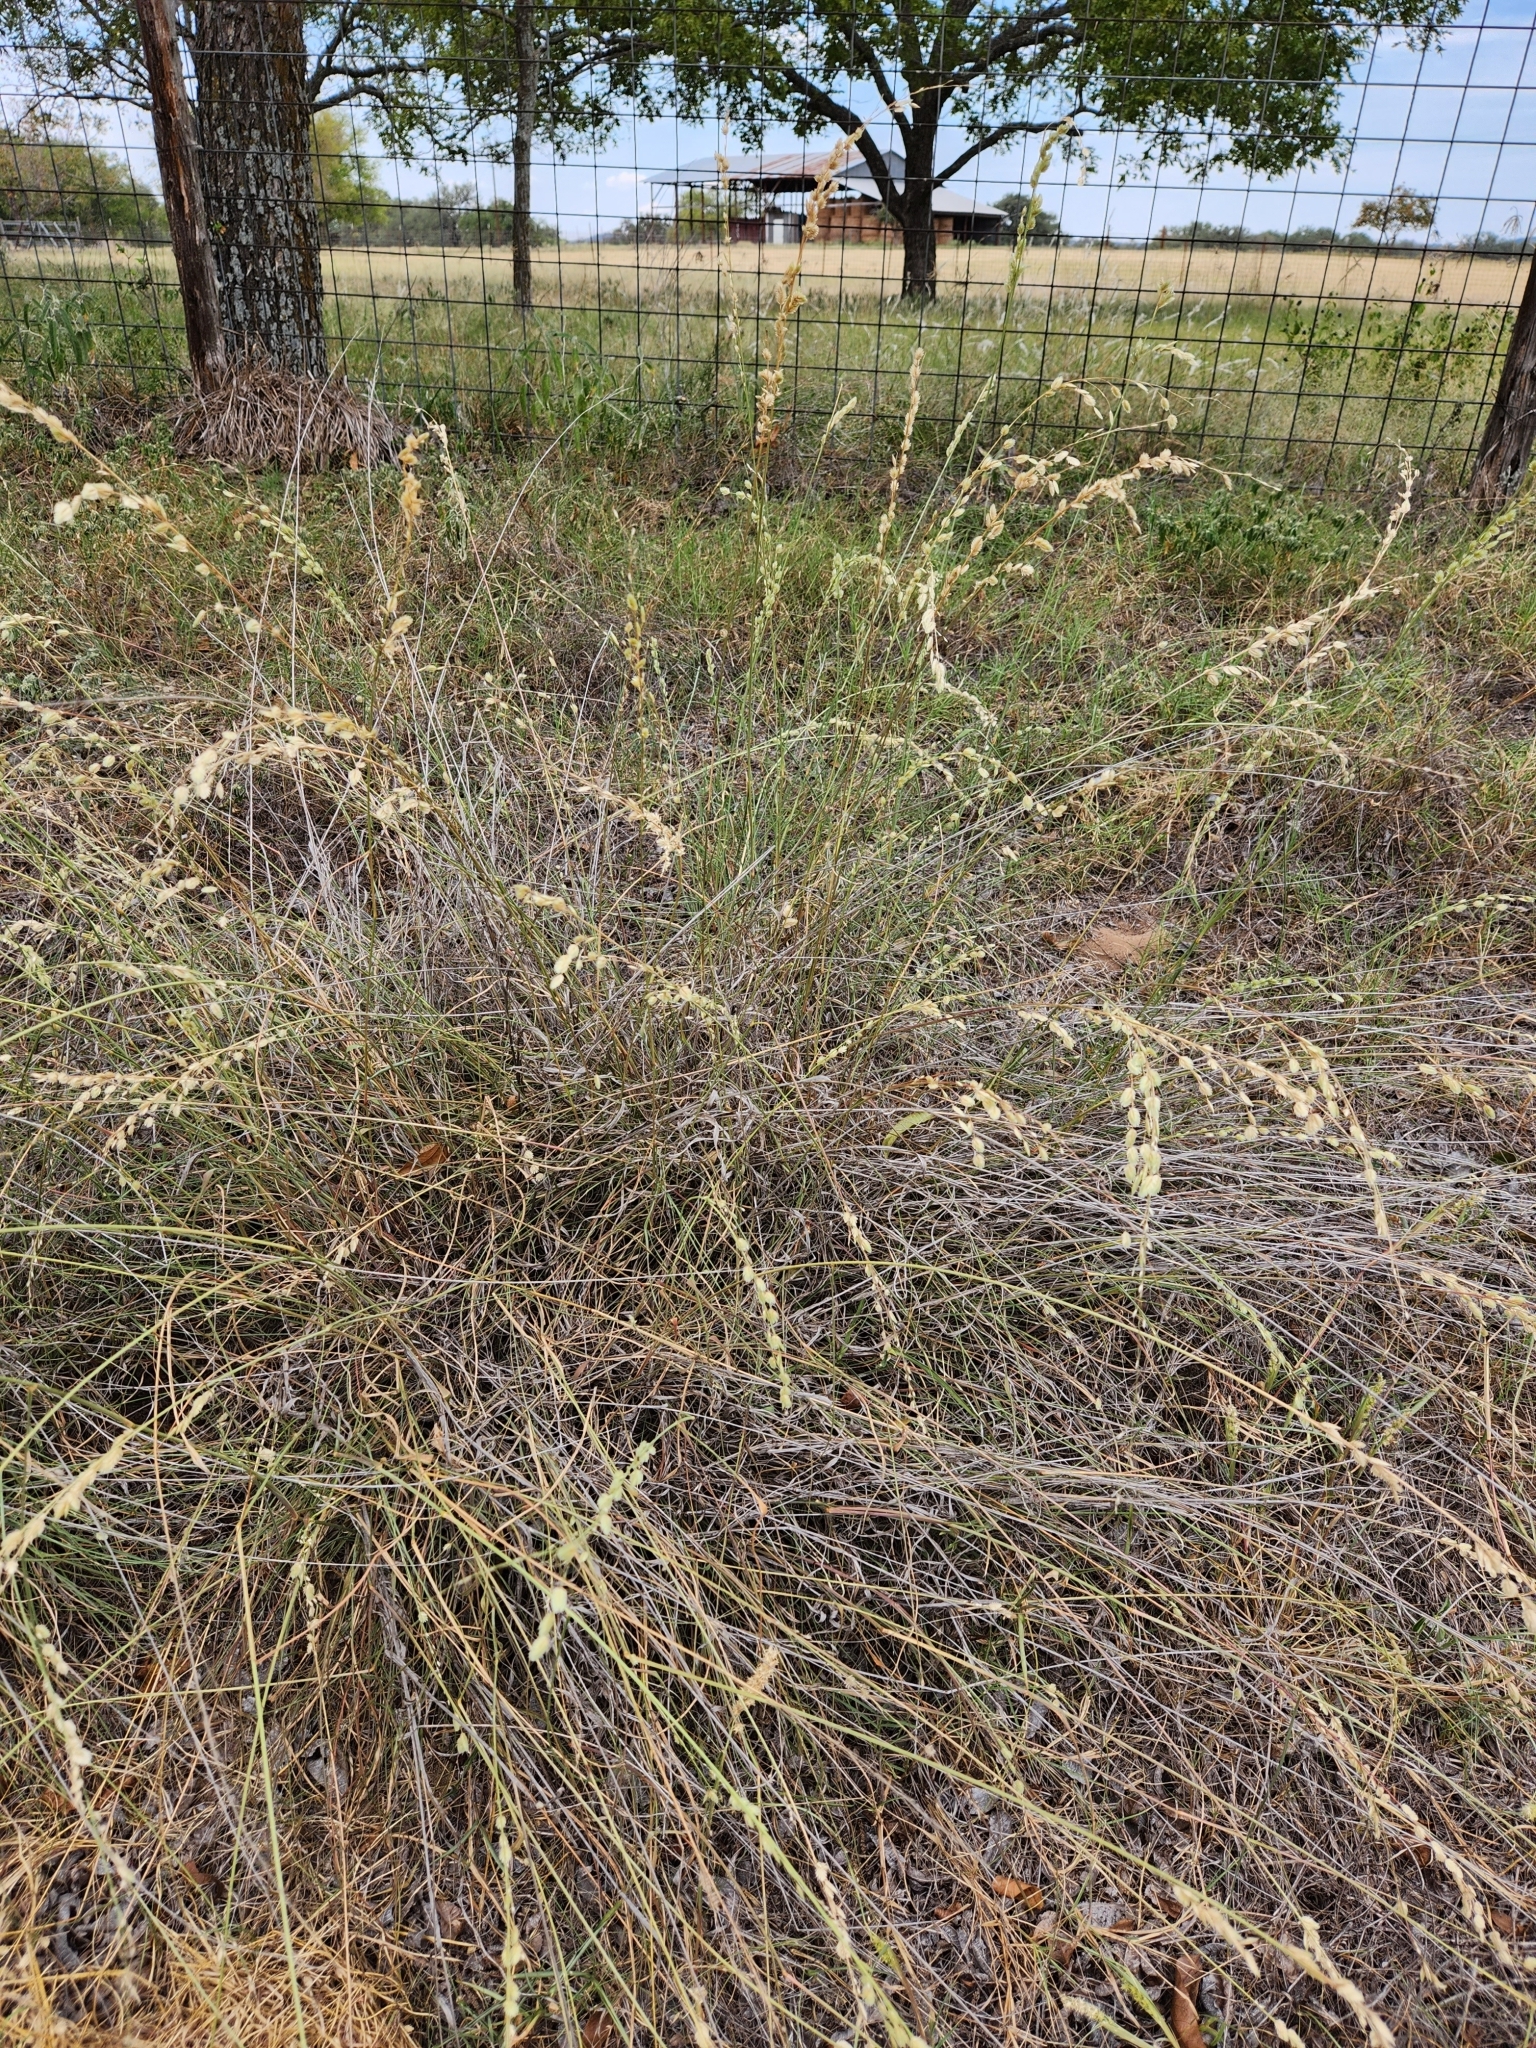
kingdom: Plantae
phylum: Tracheophyta
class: Liliopsida
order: Poales
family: Poaceae
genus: Eragrostis
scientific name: Eragrostis superba
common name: Wilman lovegrass
